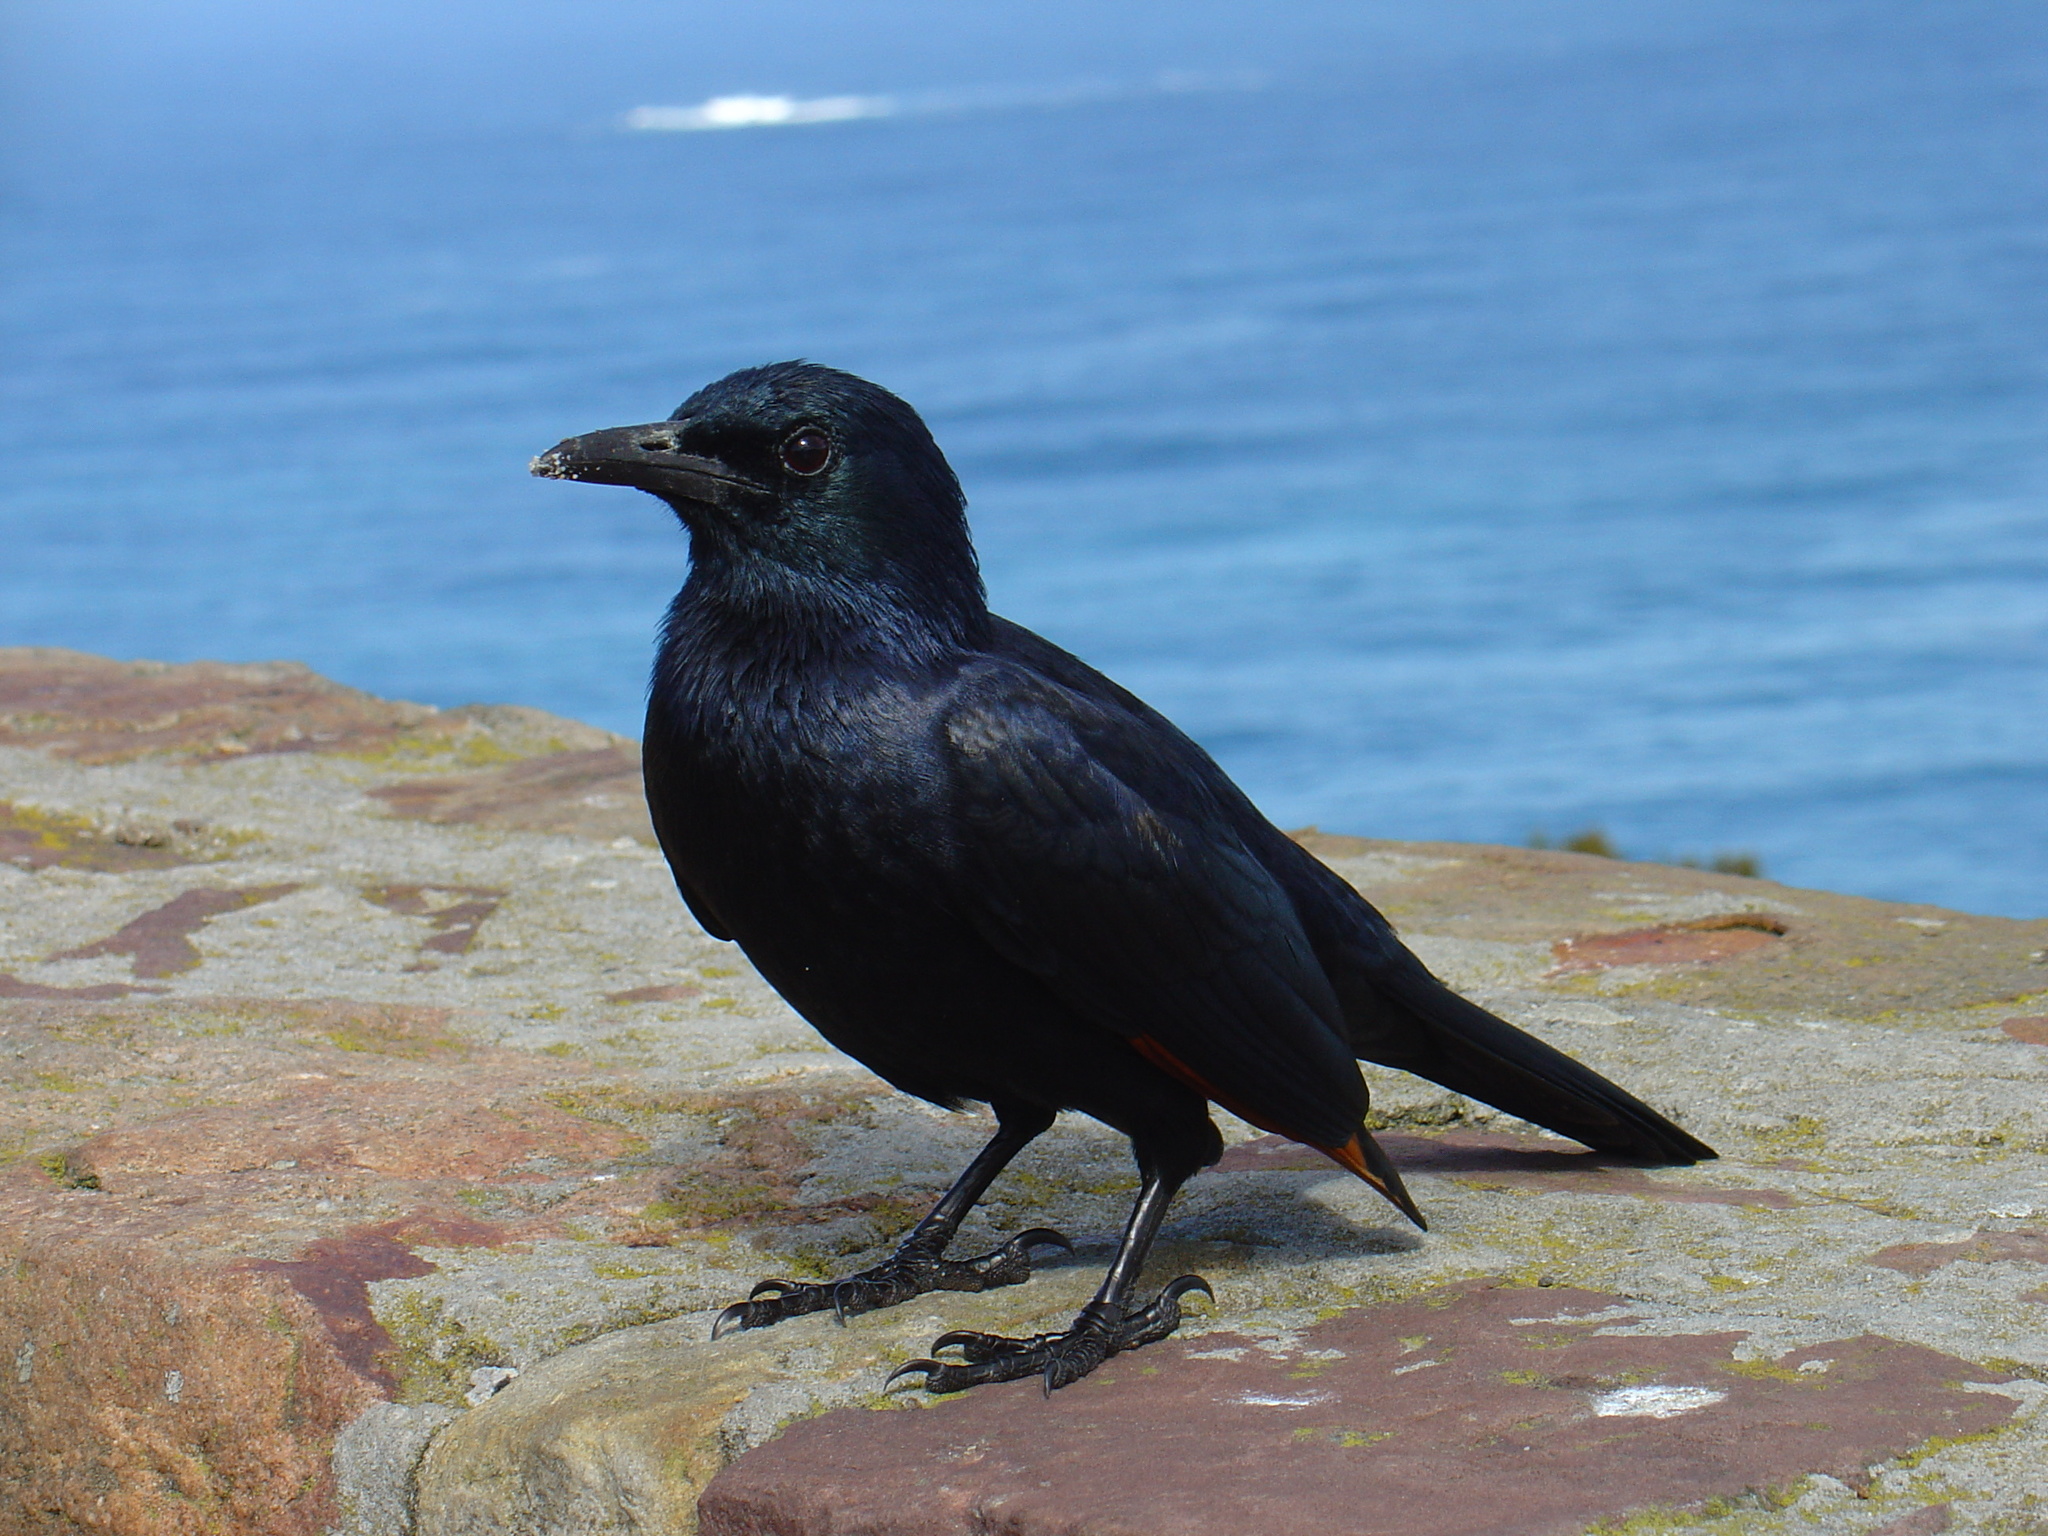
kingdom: Animalia
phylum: Chordata
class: Aves
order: Passeriformes
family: Sturnidae
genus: Onychognathus
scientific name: Onychognathus morio
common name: Red-winged starling
